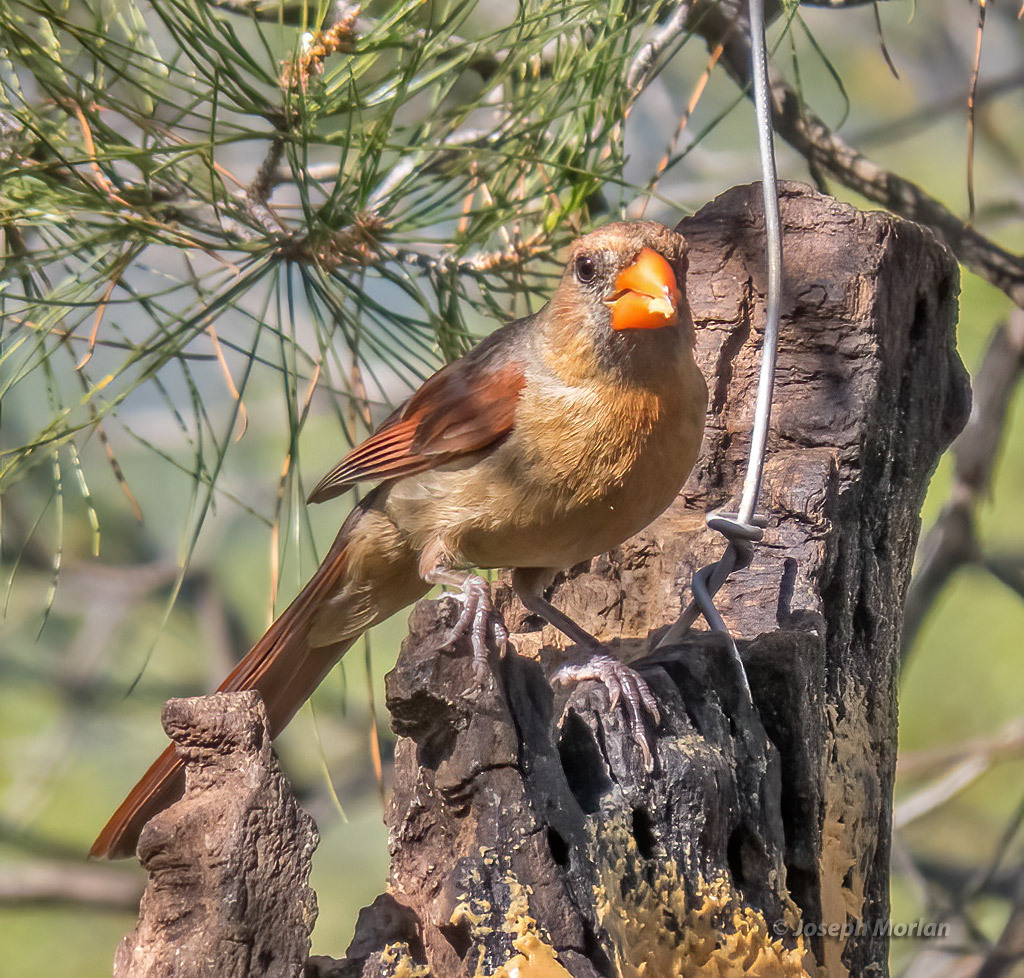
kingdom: Animalia
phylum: Chordata
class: Aves
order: Passeriformes
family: Cardinalidae
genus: Cardinalis
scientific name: Cardinalis cardinalis
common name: Northern cardinal
